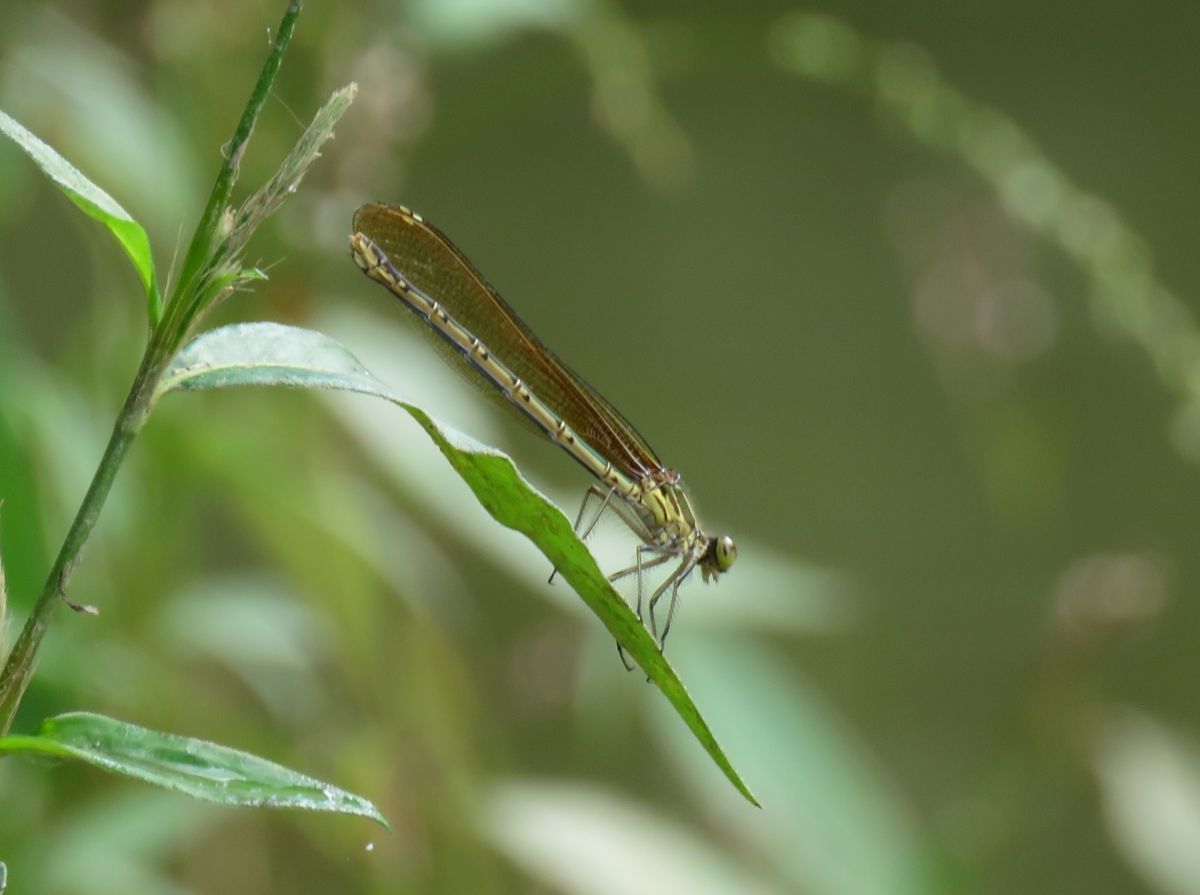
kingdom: Animalia
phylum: Arthropoda
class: Insecta
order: Odonata
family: Calopterygidae
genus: Hetaerina
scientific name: Hetaerina americana
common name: American rubyspot
